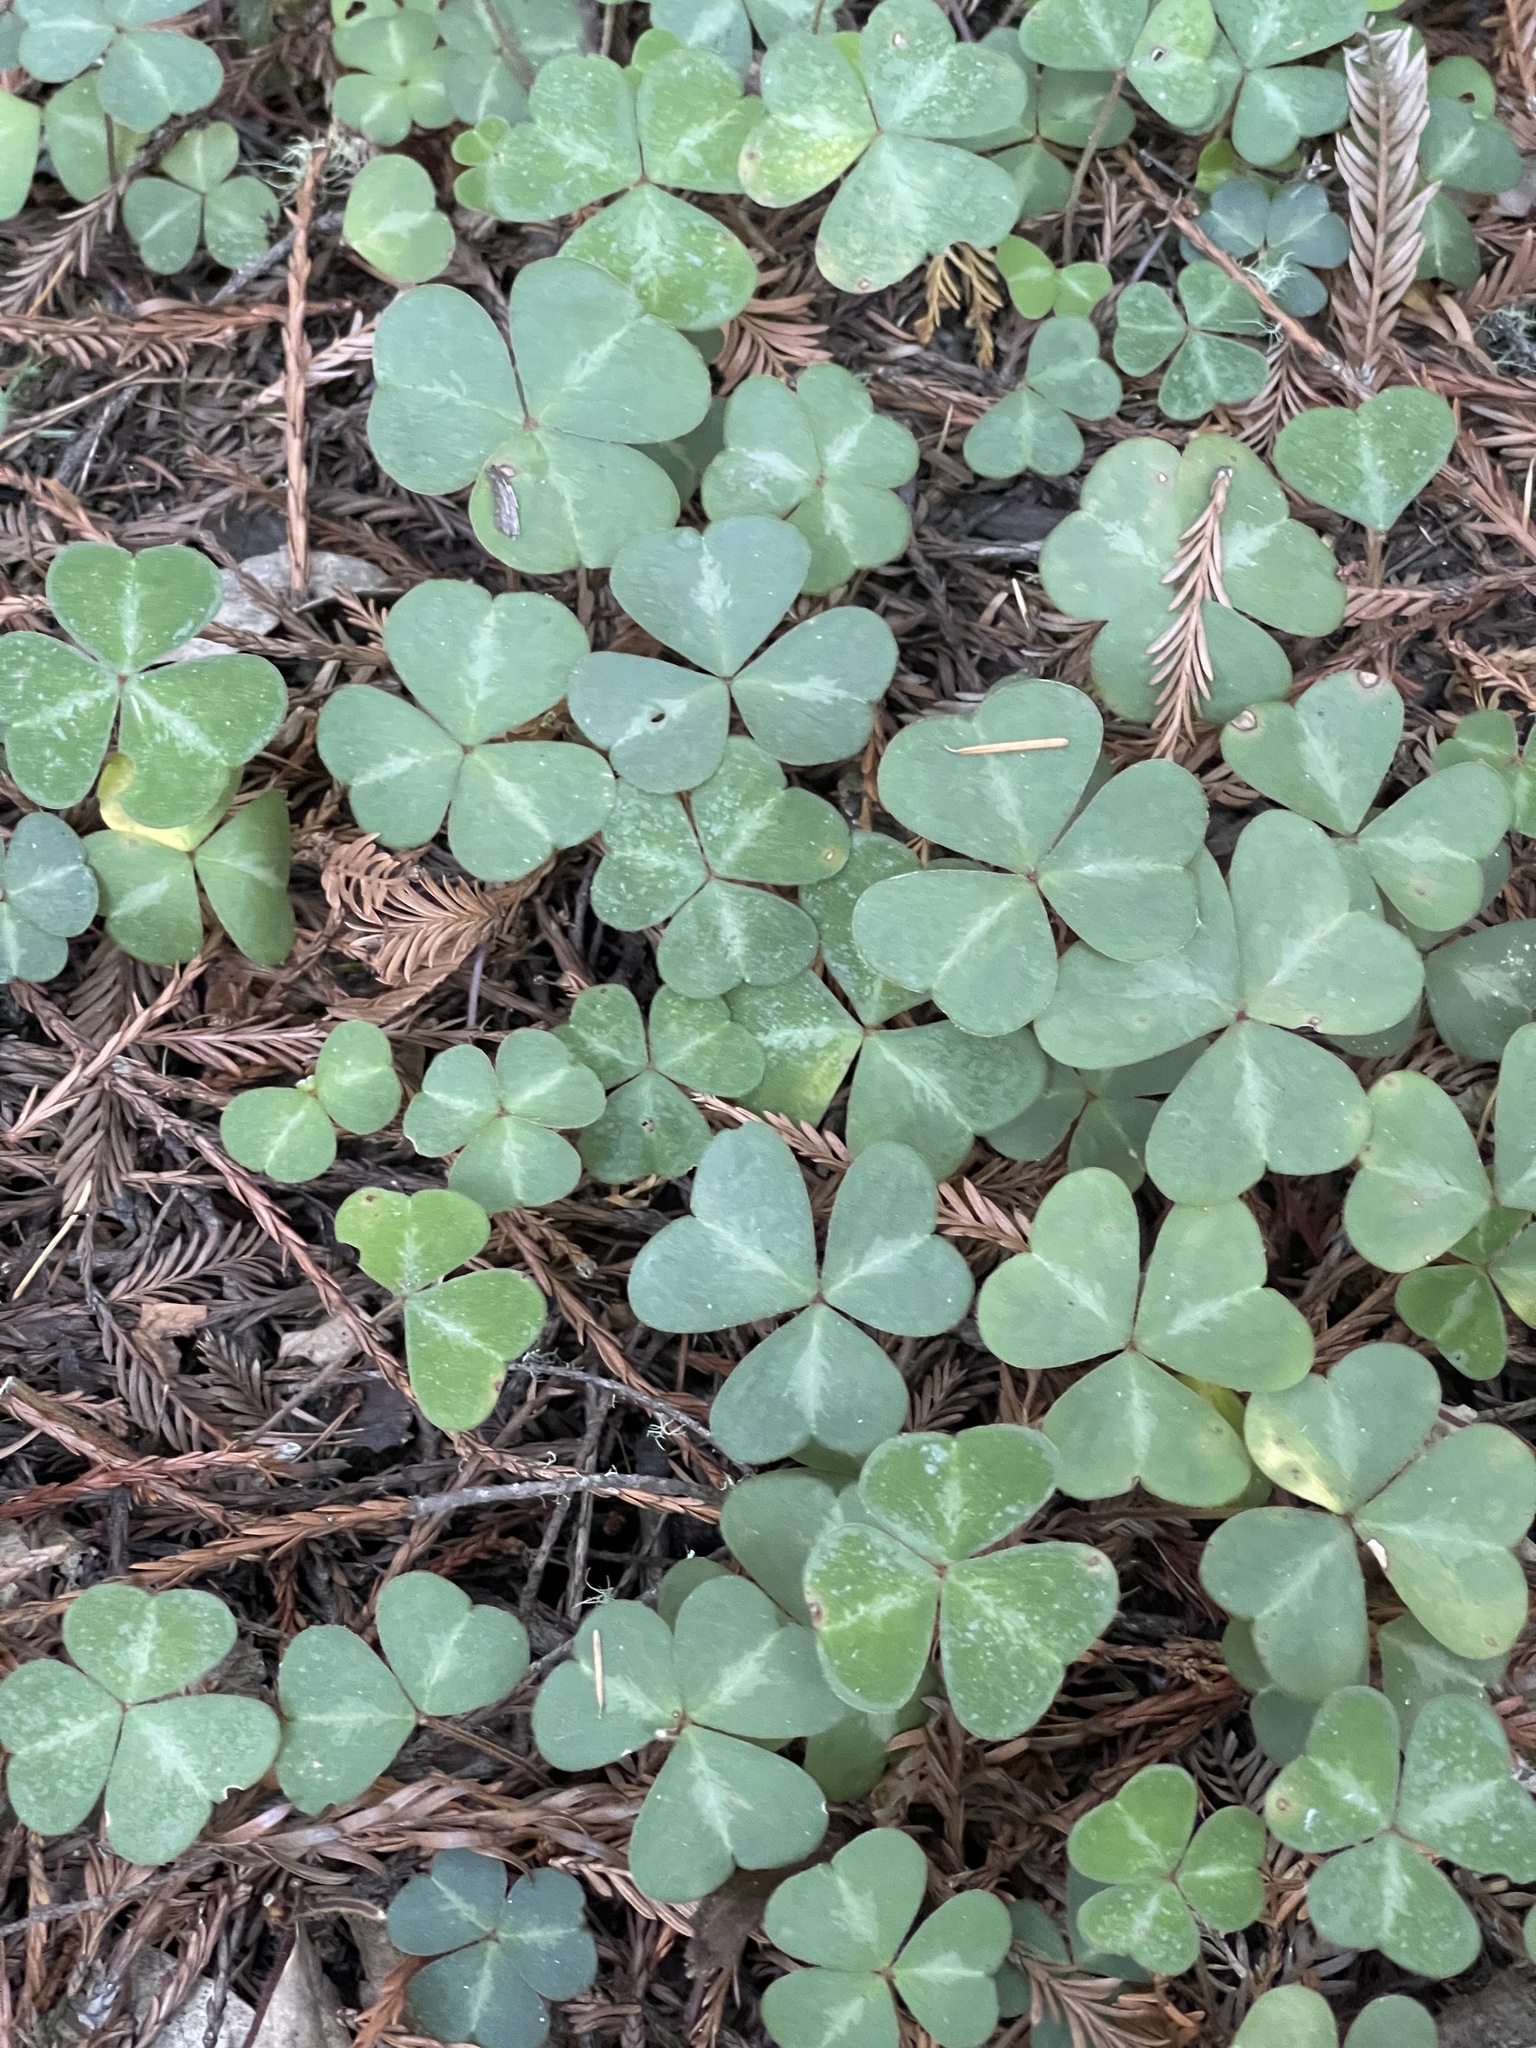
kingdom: Plantae
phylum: Tracheophyta
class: Magnoliopsida
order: Oxalidales
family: Oxalidaceae
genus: Oxalis
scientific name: Oxalis oregana
